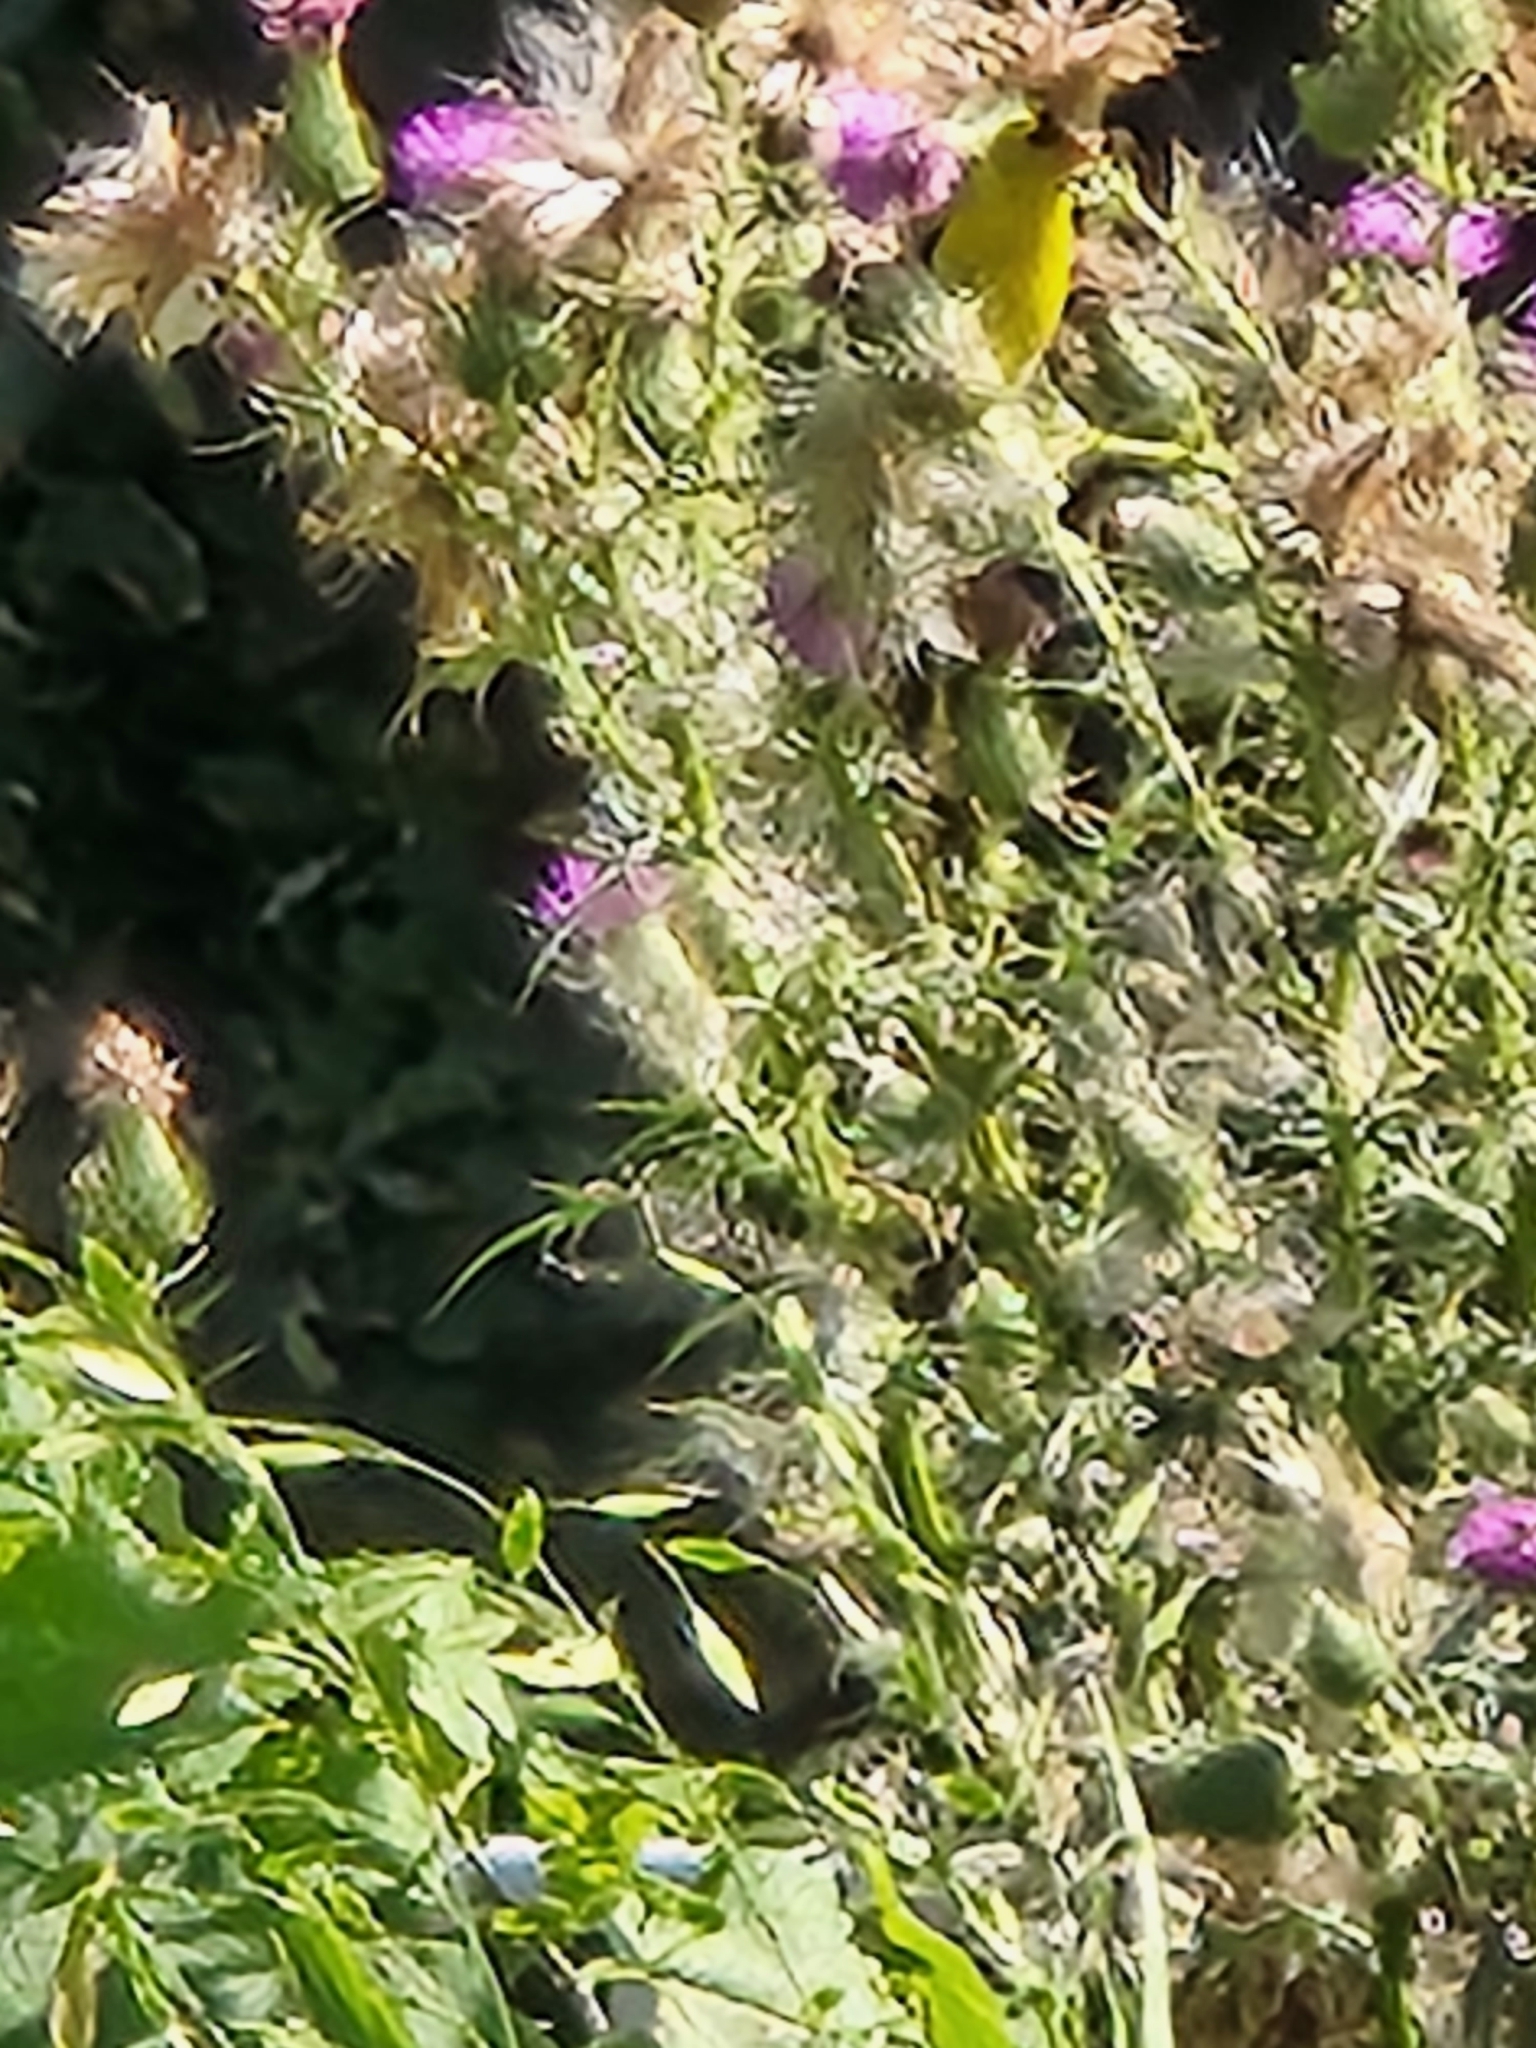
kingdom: Animalia
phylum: Chordata
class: Aves
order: Passeriformes
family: Fringillidae
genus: Spinus
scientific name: Spinus tristis
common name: American goldfinch
